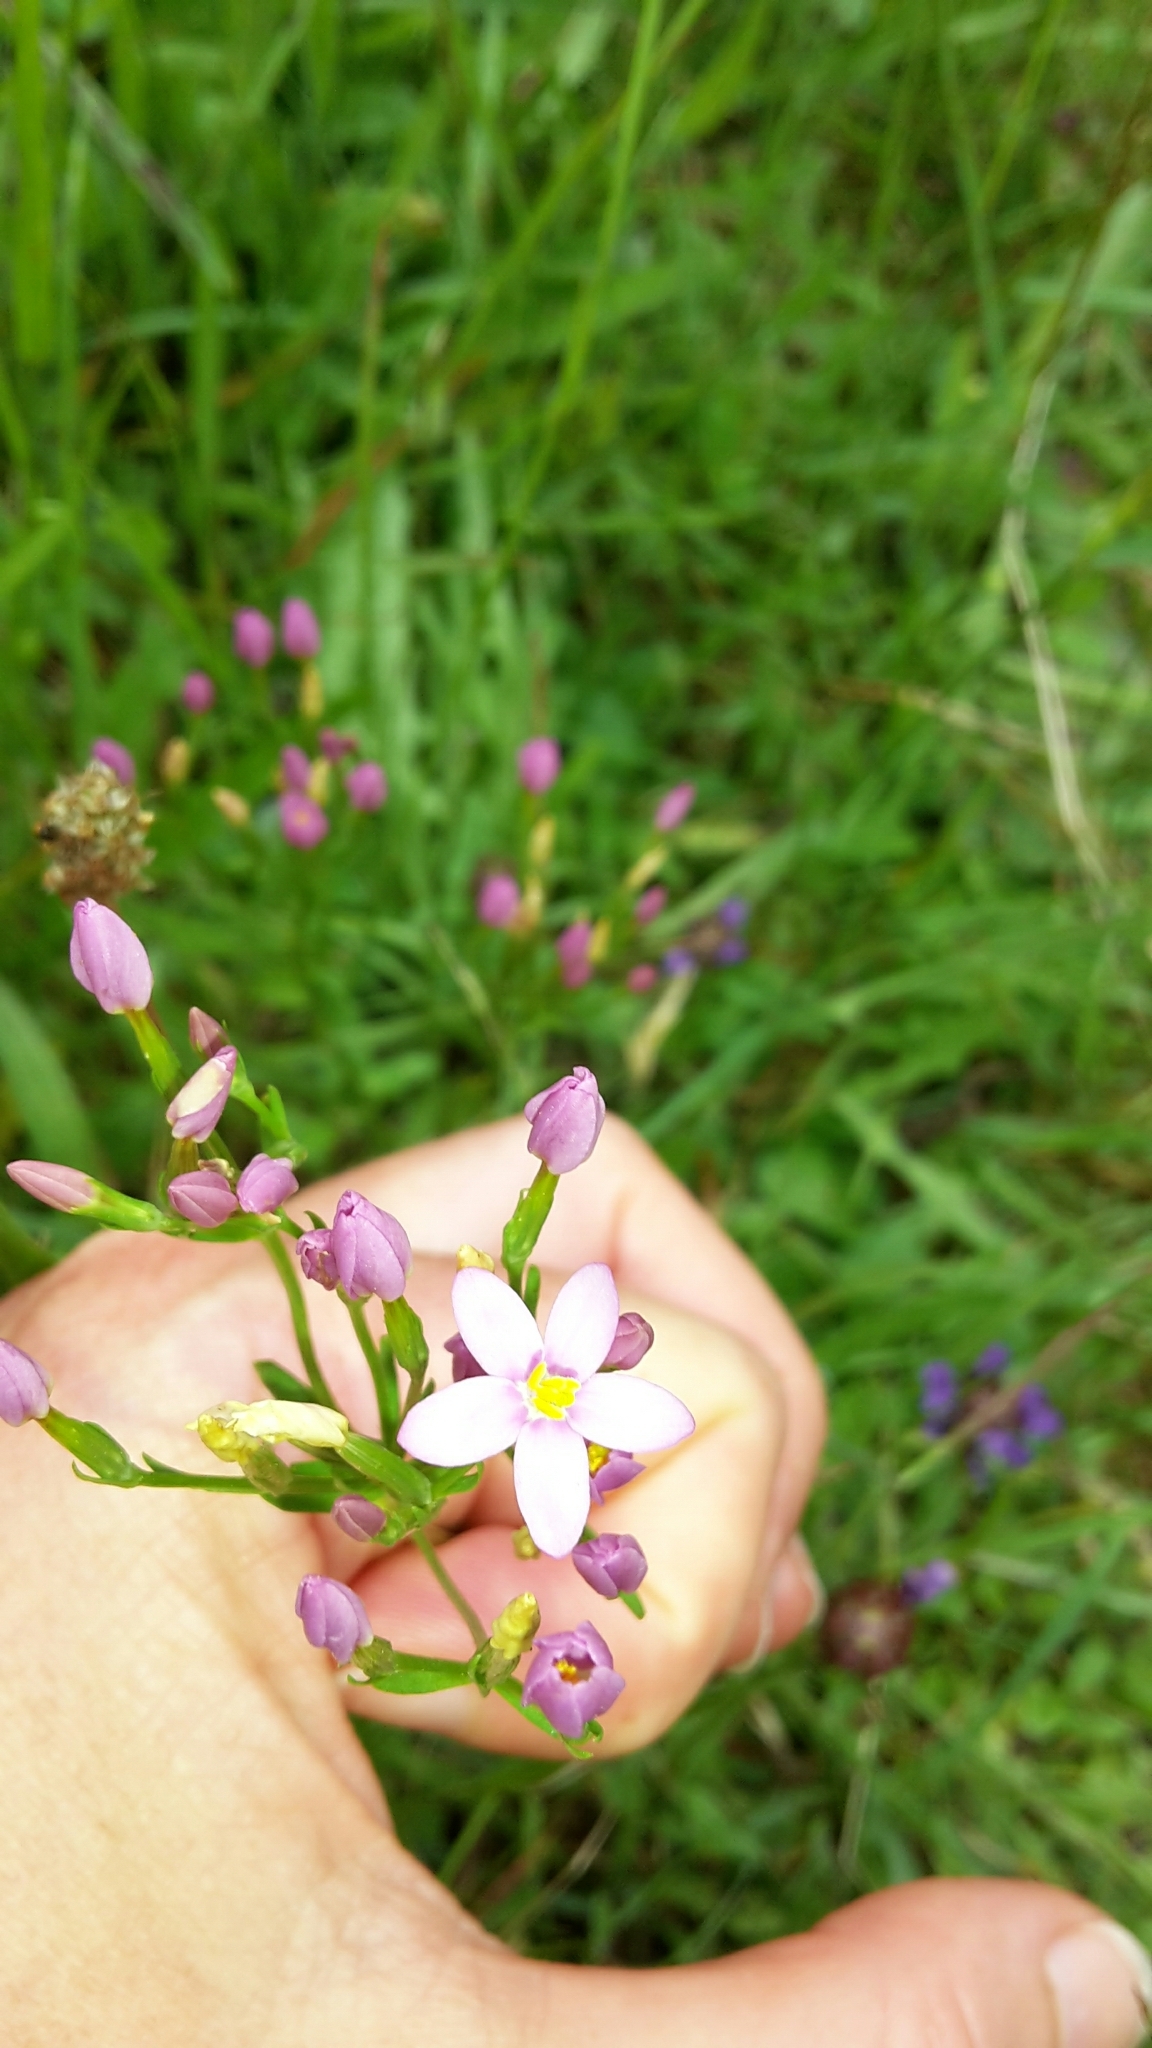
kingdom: Plantae
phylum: Tracheophyta
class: Magnoliopsida
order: Gentianales
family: Gentianaceae
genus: Centaurium
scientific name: Centaurium erythraea
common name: Common centaury
